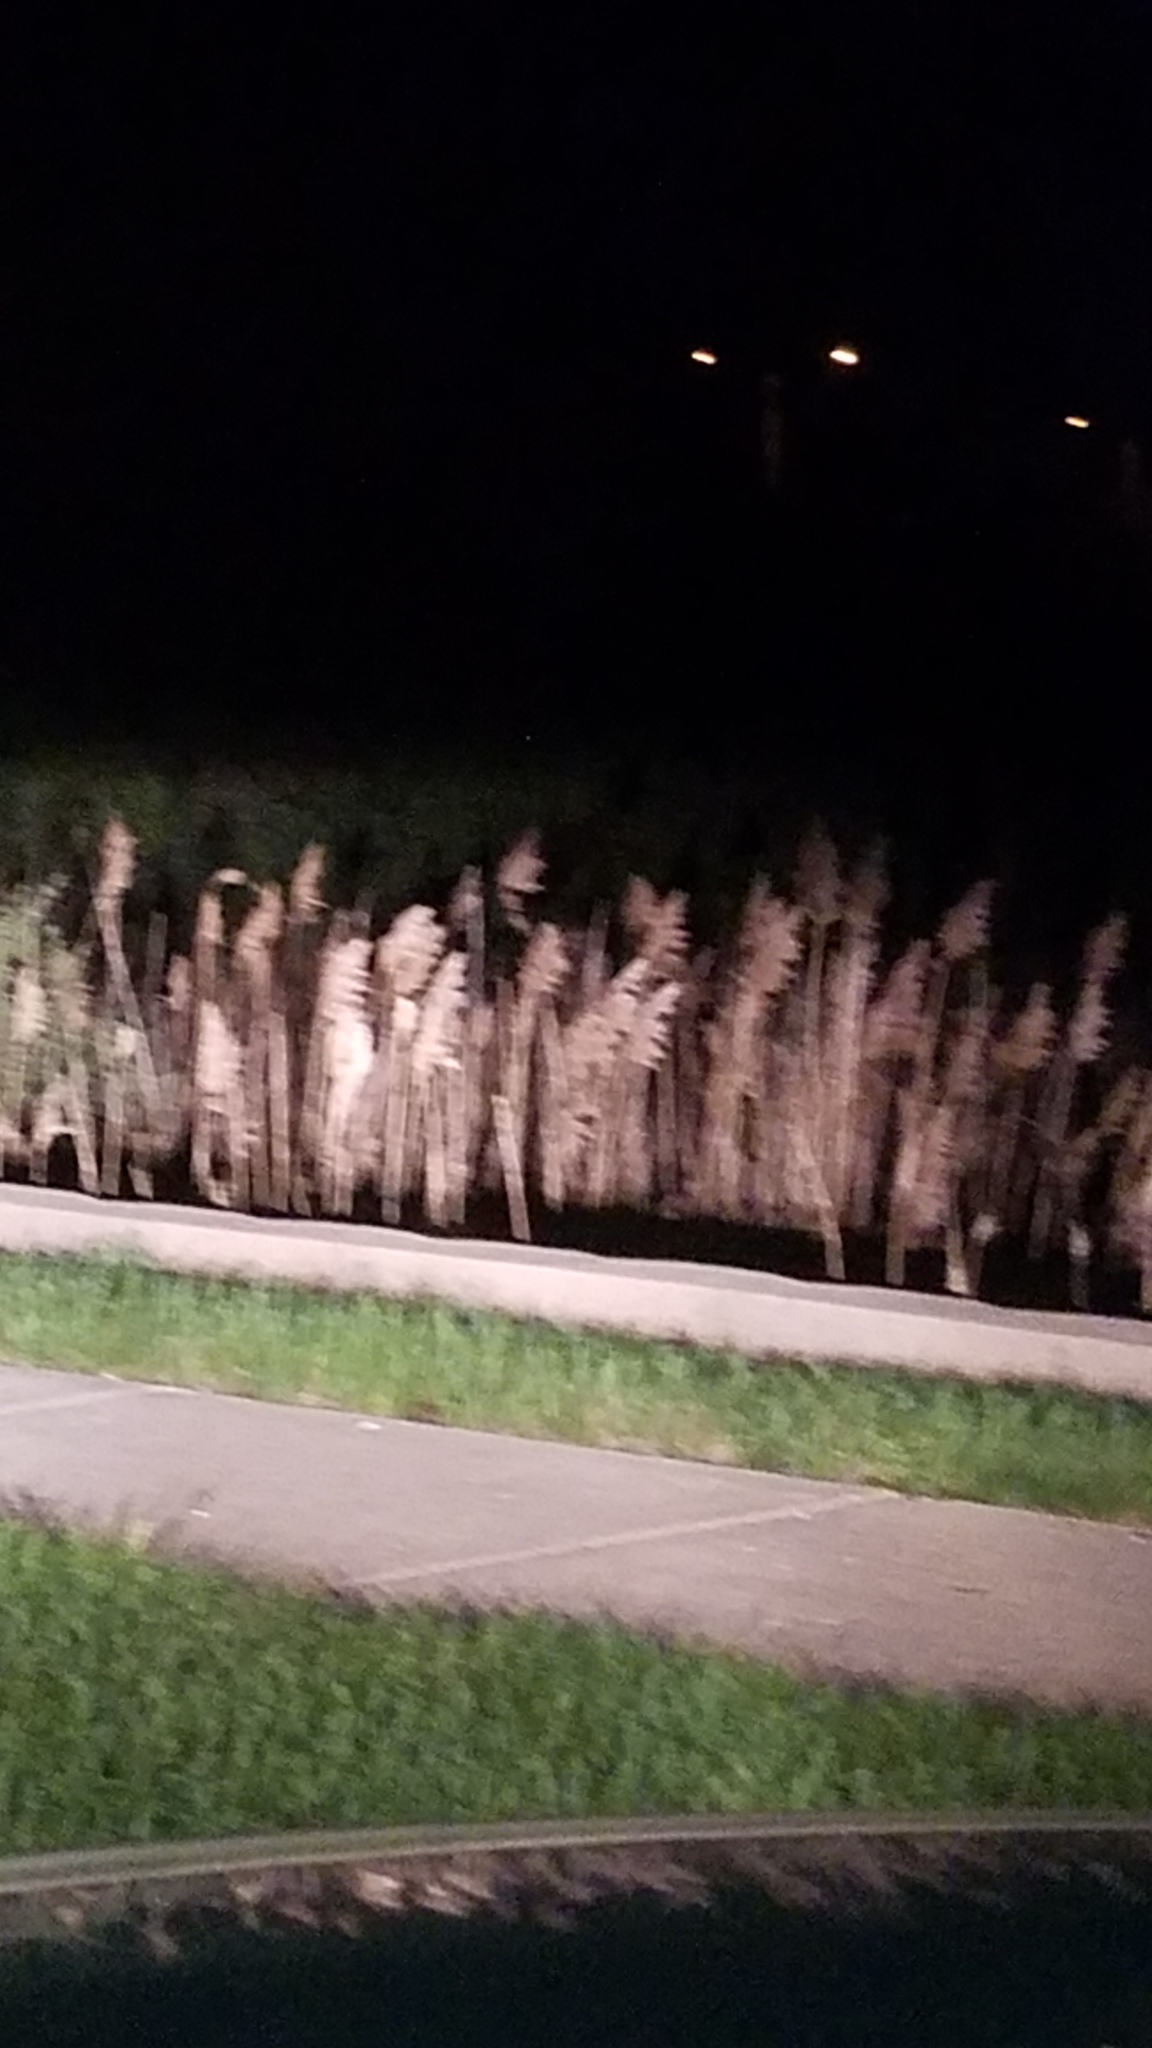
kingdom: Plantae
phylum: Tracheophyta
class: Liliopsida
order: Poales
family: Poaceae
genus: Phragmites
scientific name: Phragmites australis
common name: Common reed
